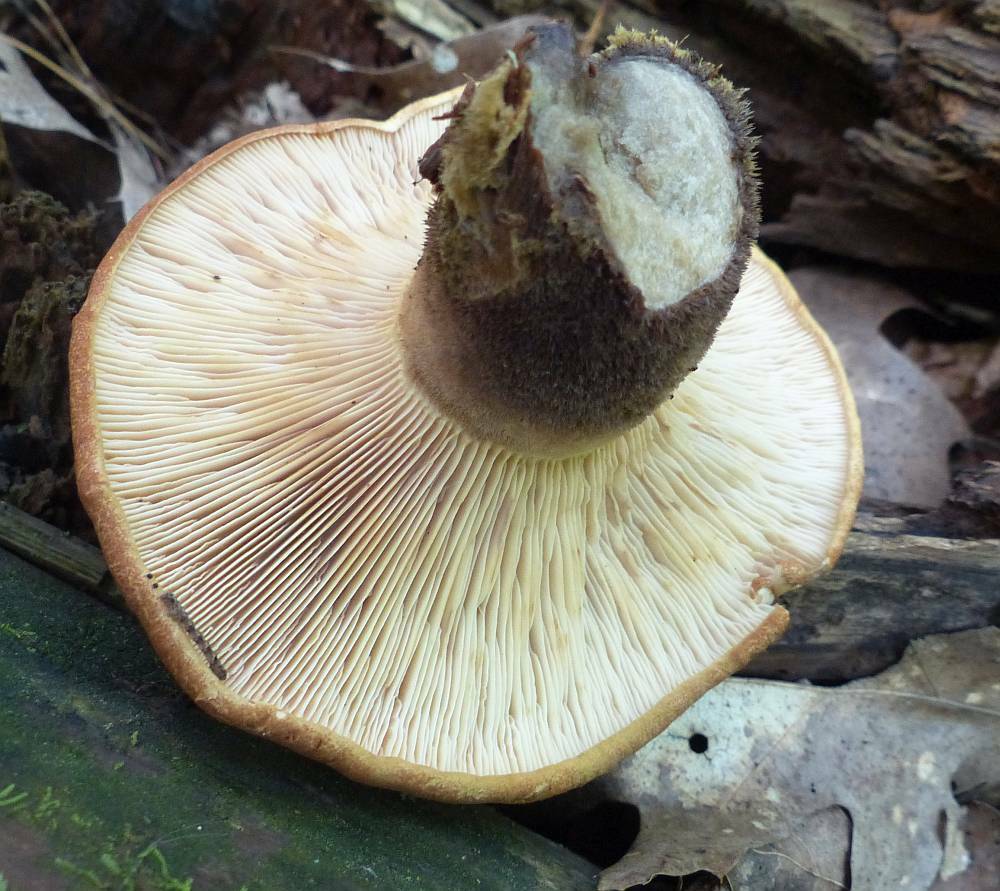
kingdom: Fungi
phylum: Basidiomycota
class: Agaricomycetes
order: Boletales
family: Tapinellaceae
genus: Tapinella
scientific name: Tapinella atrotomentosa
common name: Velvet rollrim
